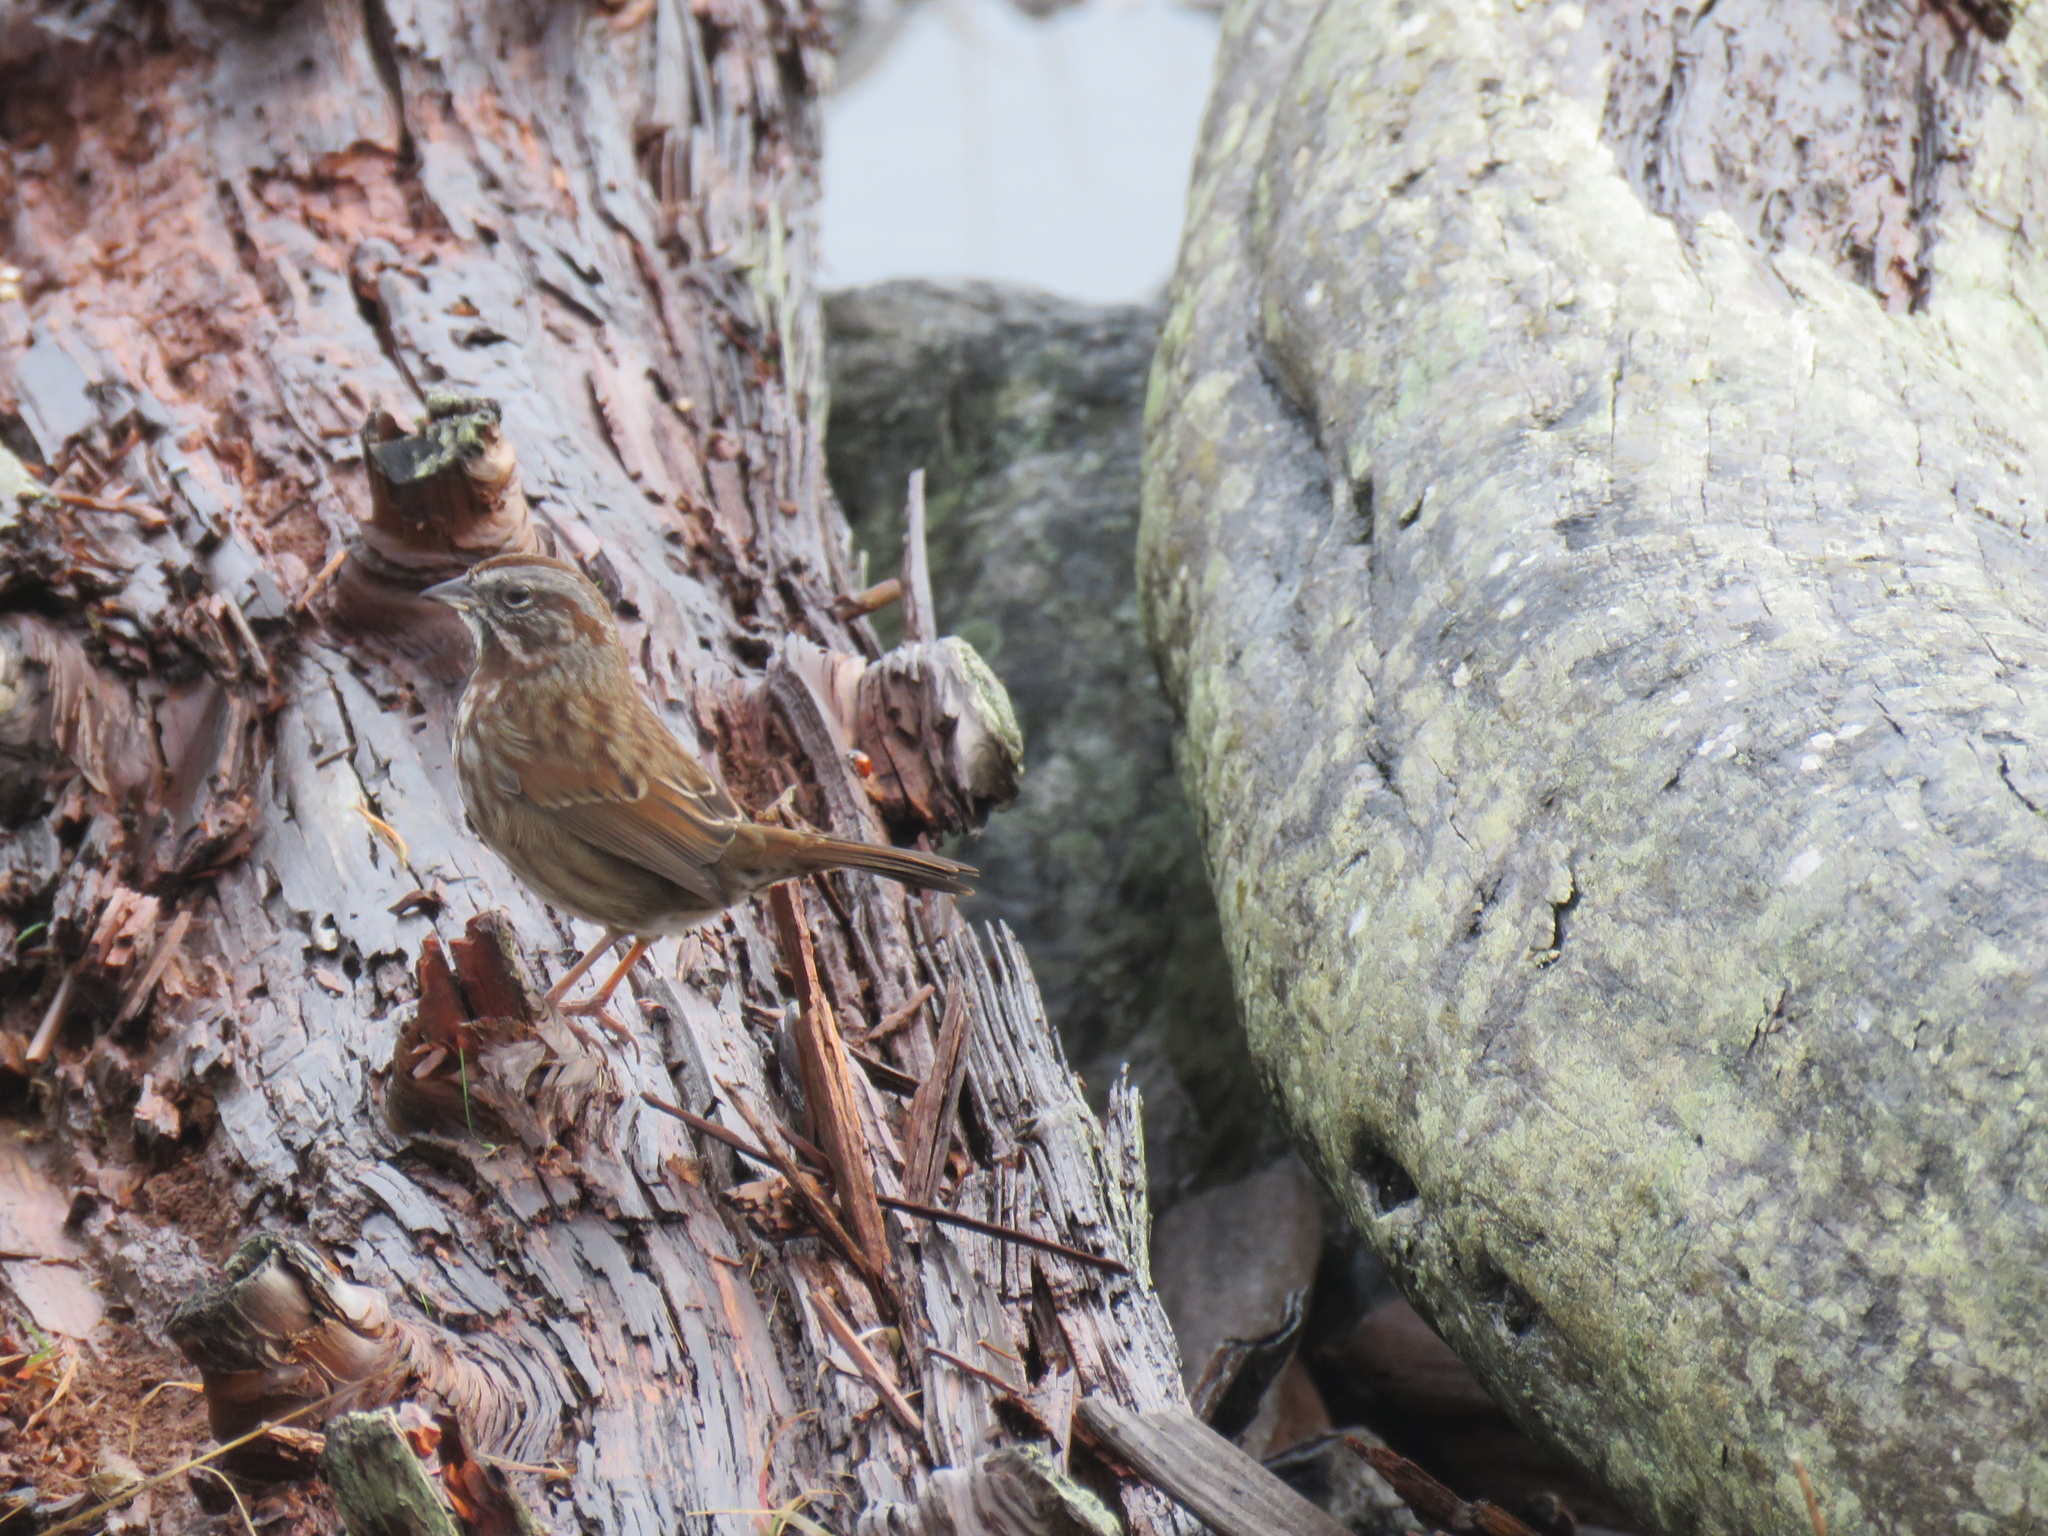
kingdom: Animalia
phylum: Chordata
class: Aves
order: Passeriformes
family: Passerellidae
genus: Melospiza
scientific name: Melospiza melodia
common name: Song sparrow
